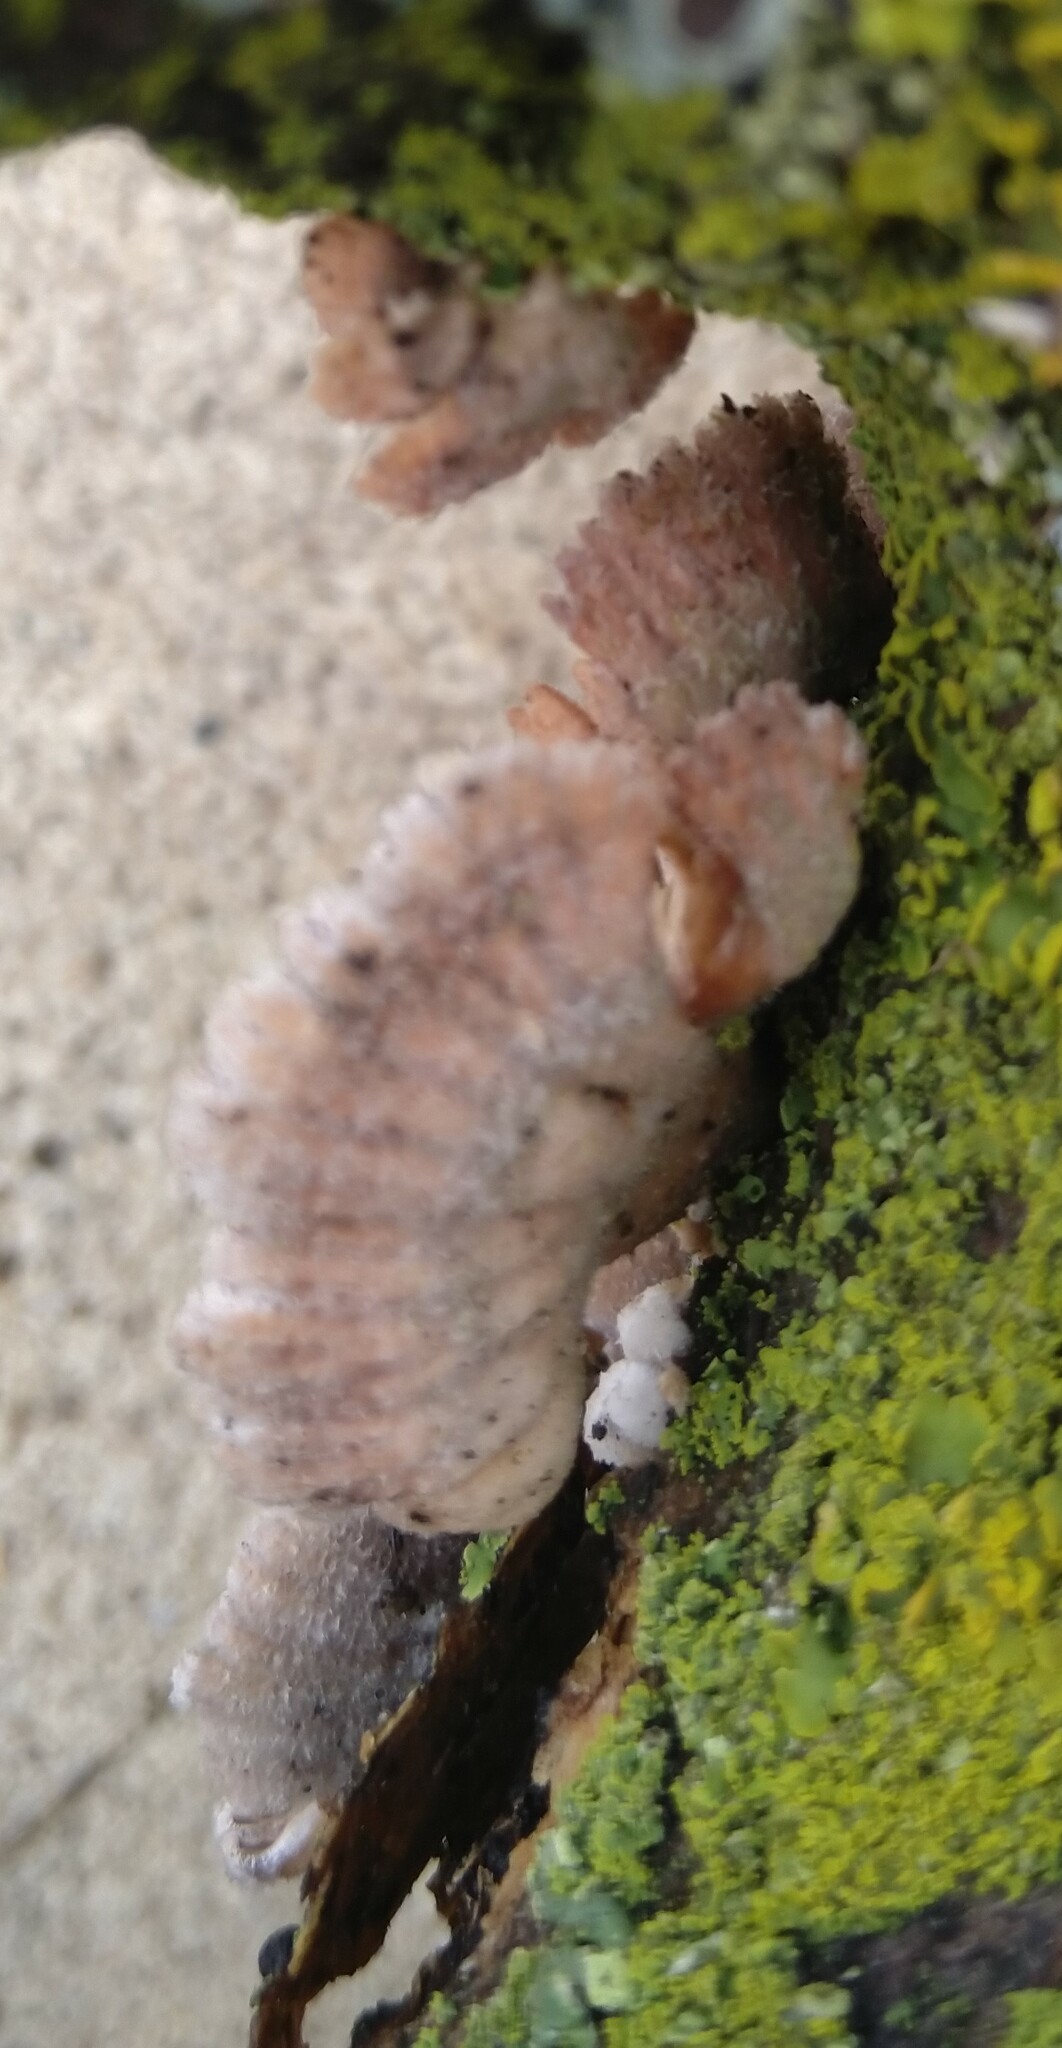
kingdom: Fungi
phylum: Basidiomycota
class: Agaricomycetes
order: Agaricales
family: Schizophyllaceae
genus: Schizophyllum
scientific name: Schizophyllum commune
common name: Common porecrust
